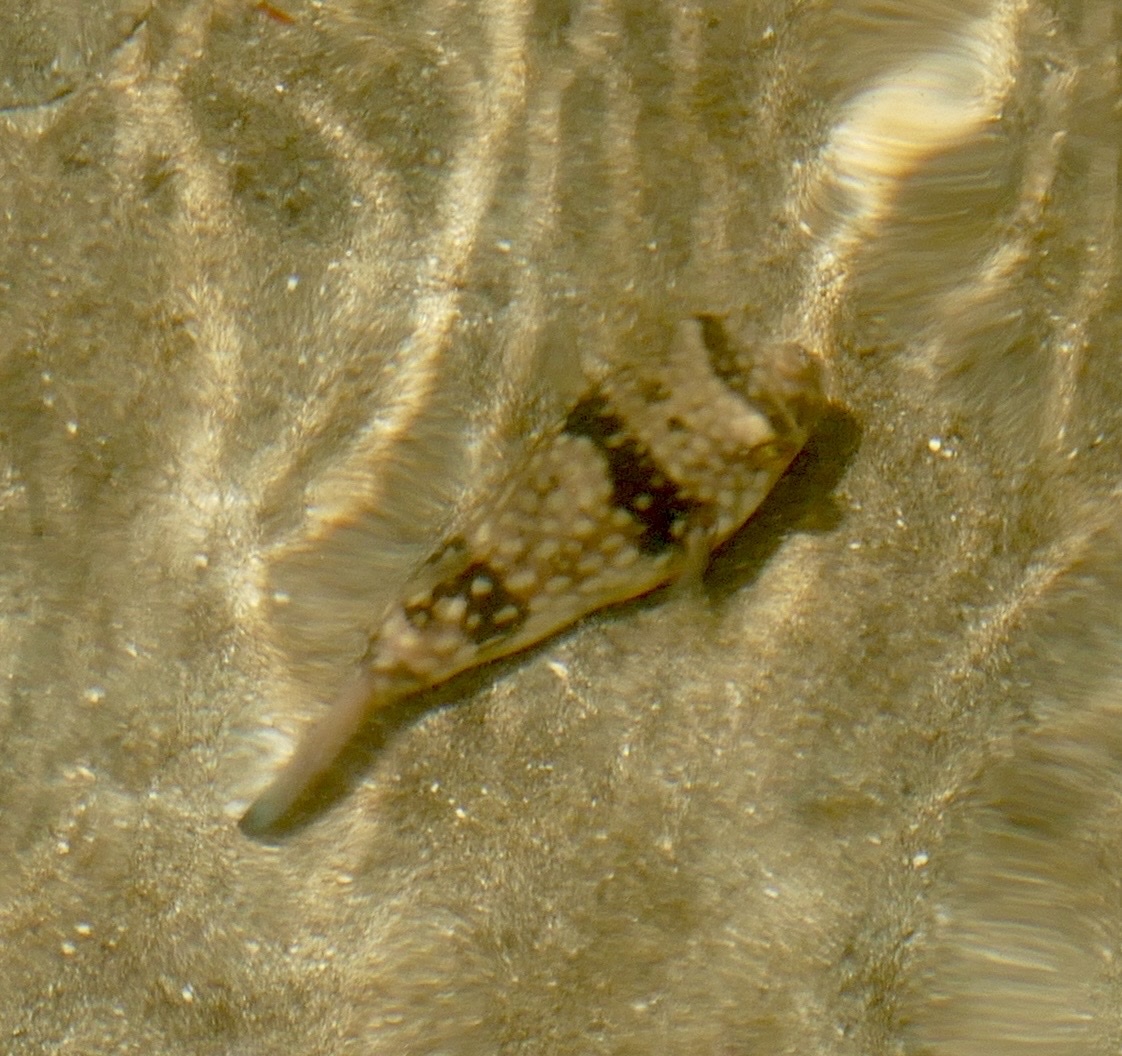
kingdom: Animalia
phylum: Chordata
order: Tetraodontiformes
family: Tetraodontidae
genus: Chelonodontops
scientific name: Chelonodontops patoca
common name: Gangetic blow fish
